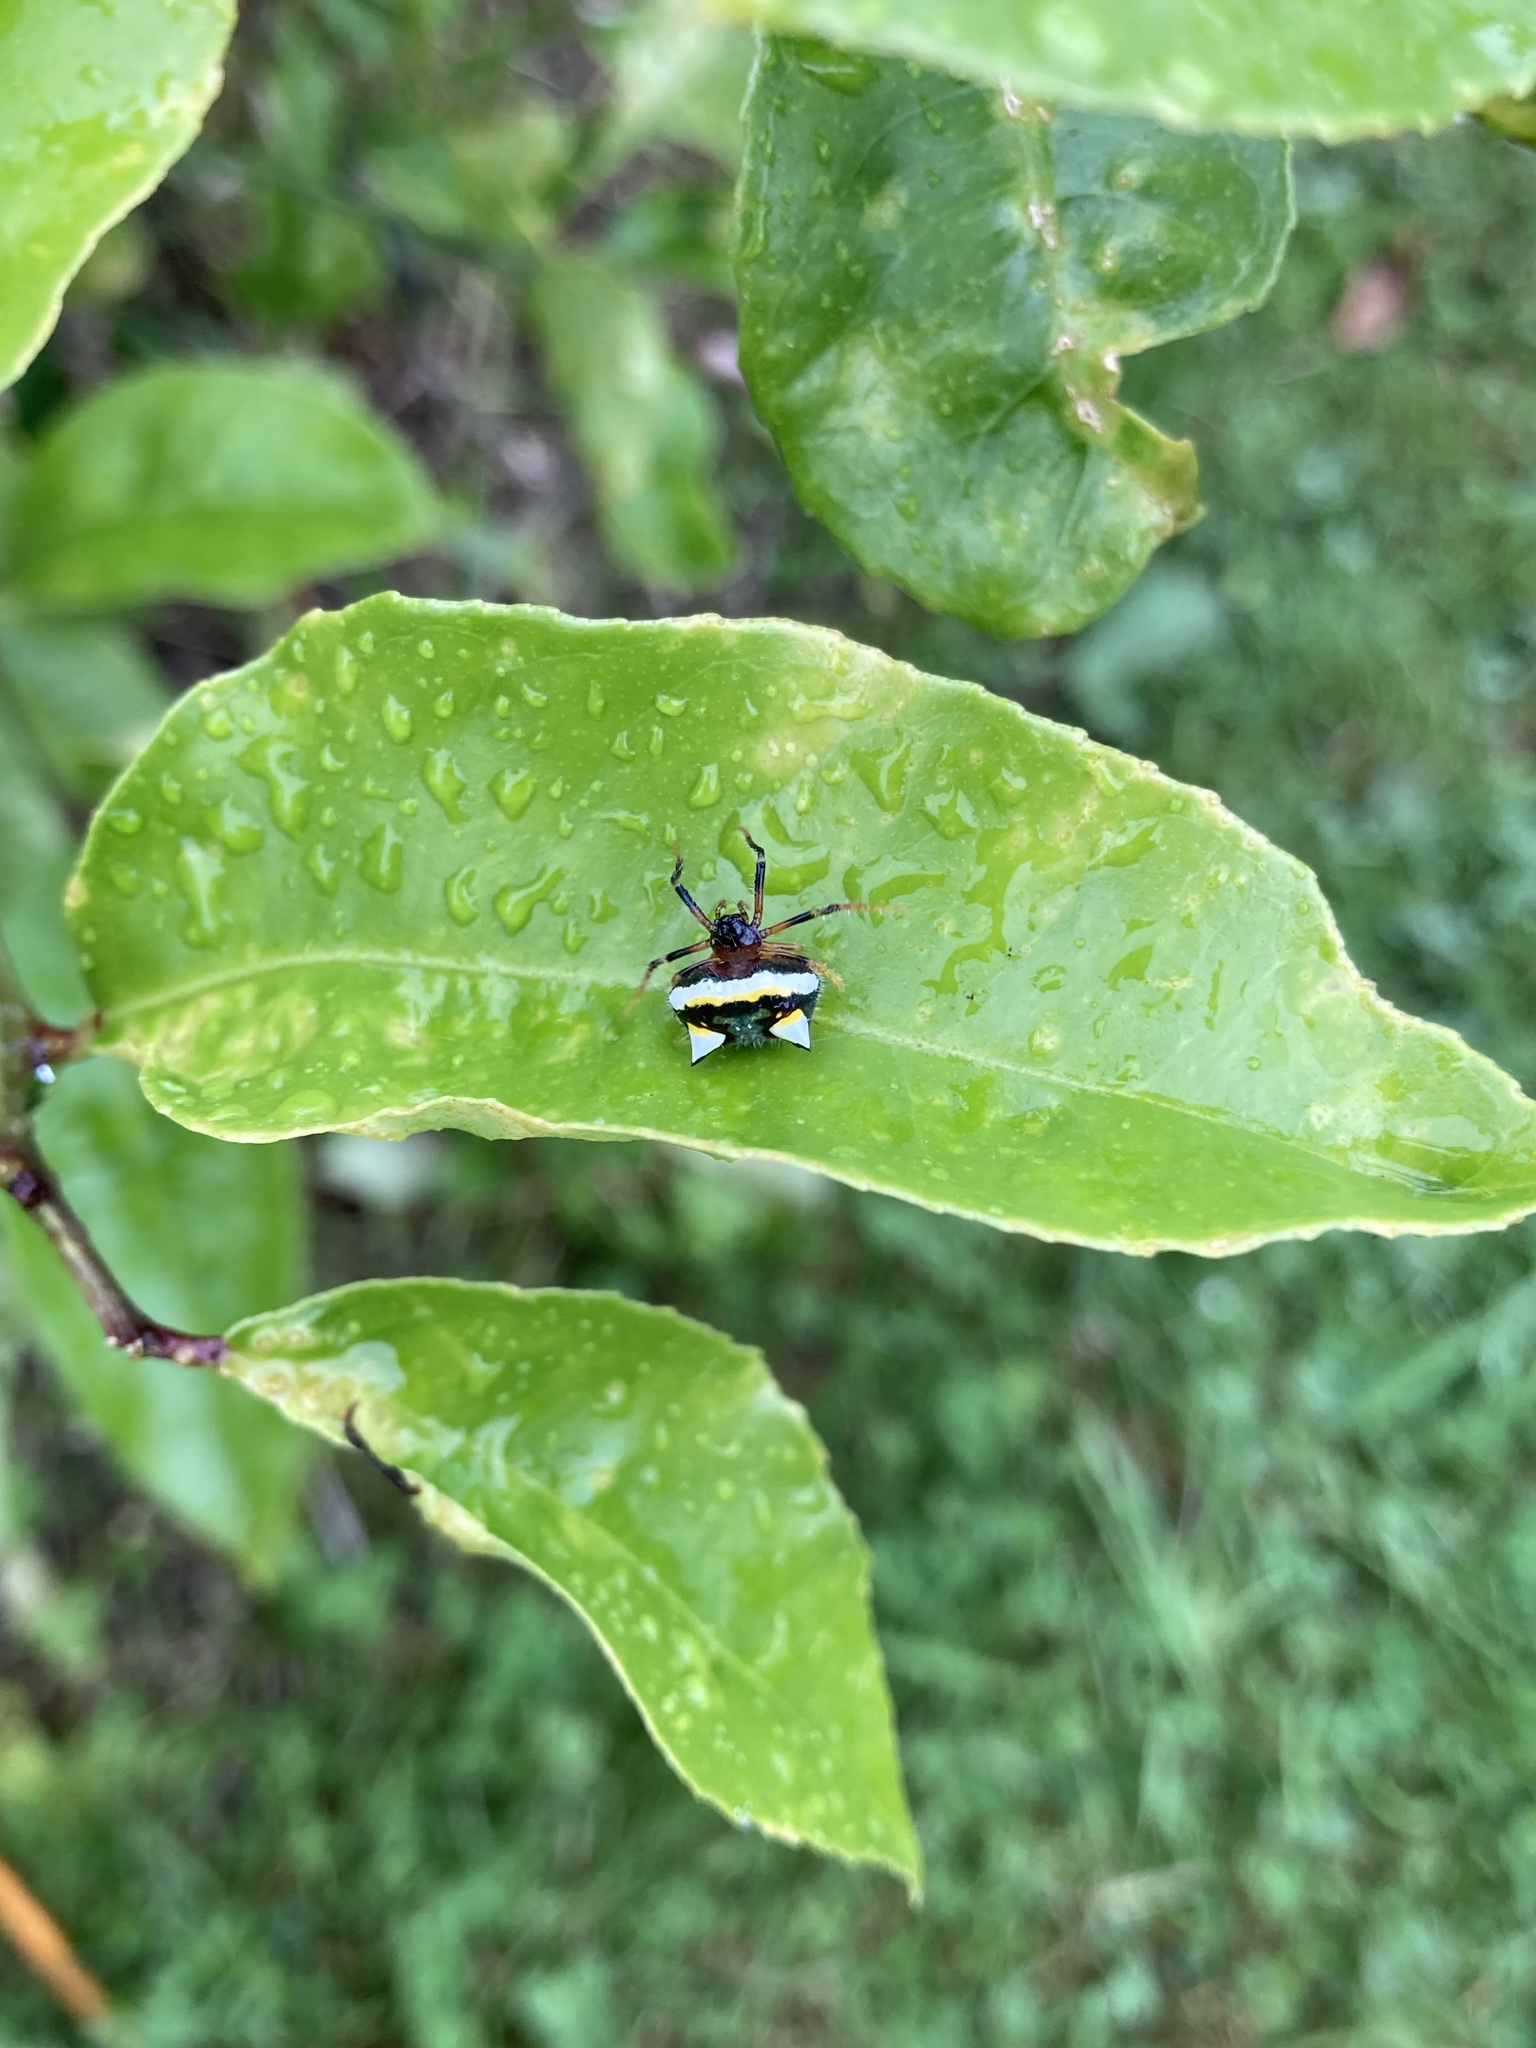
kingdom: Animalia
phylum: Arthropoda
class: Arachnida
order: Araneae
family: Araneidae
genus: Poecilopachys
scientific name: Poecilopachys australasia
